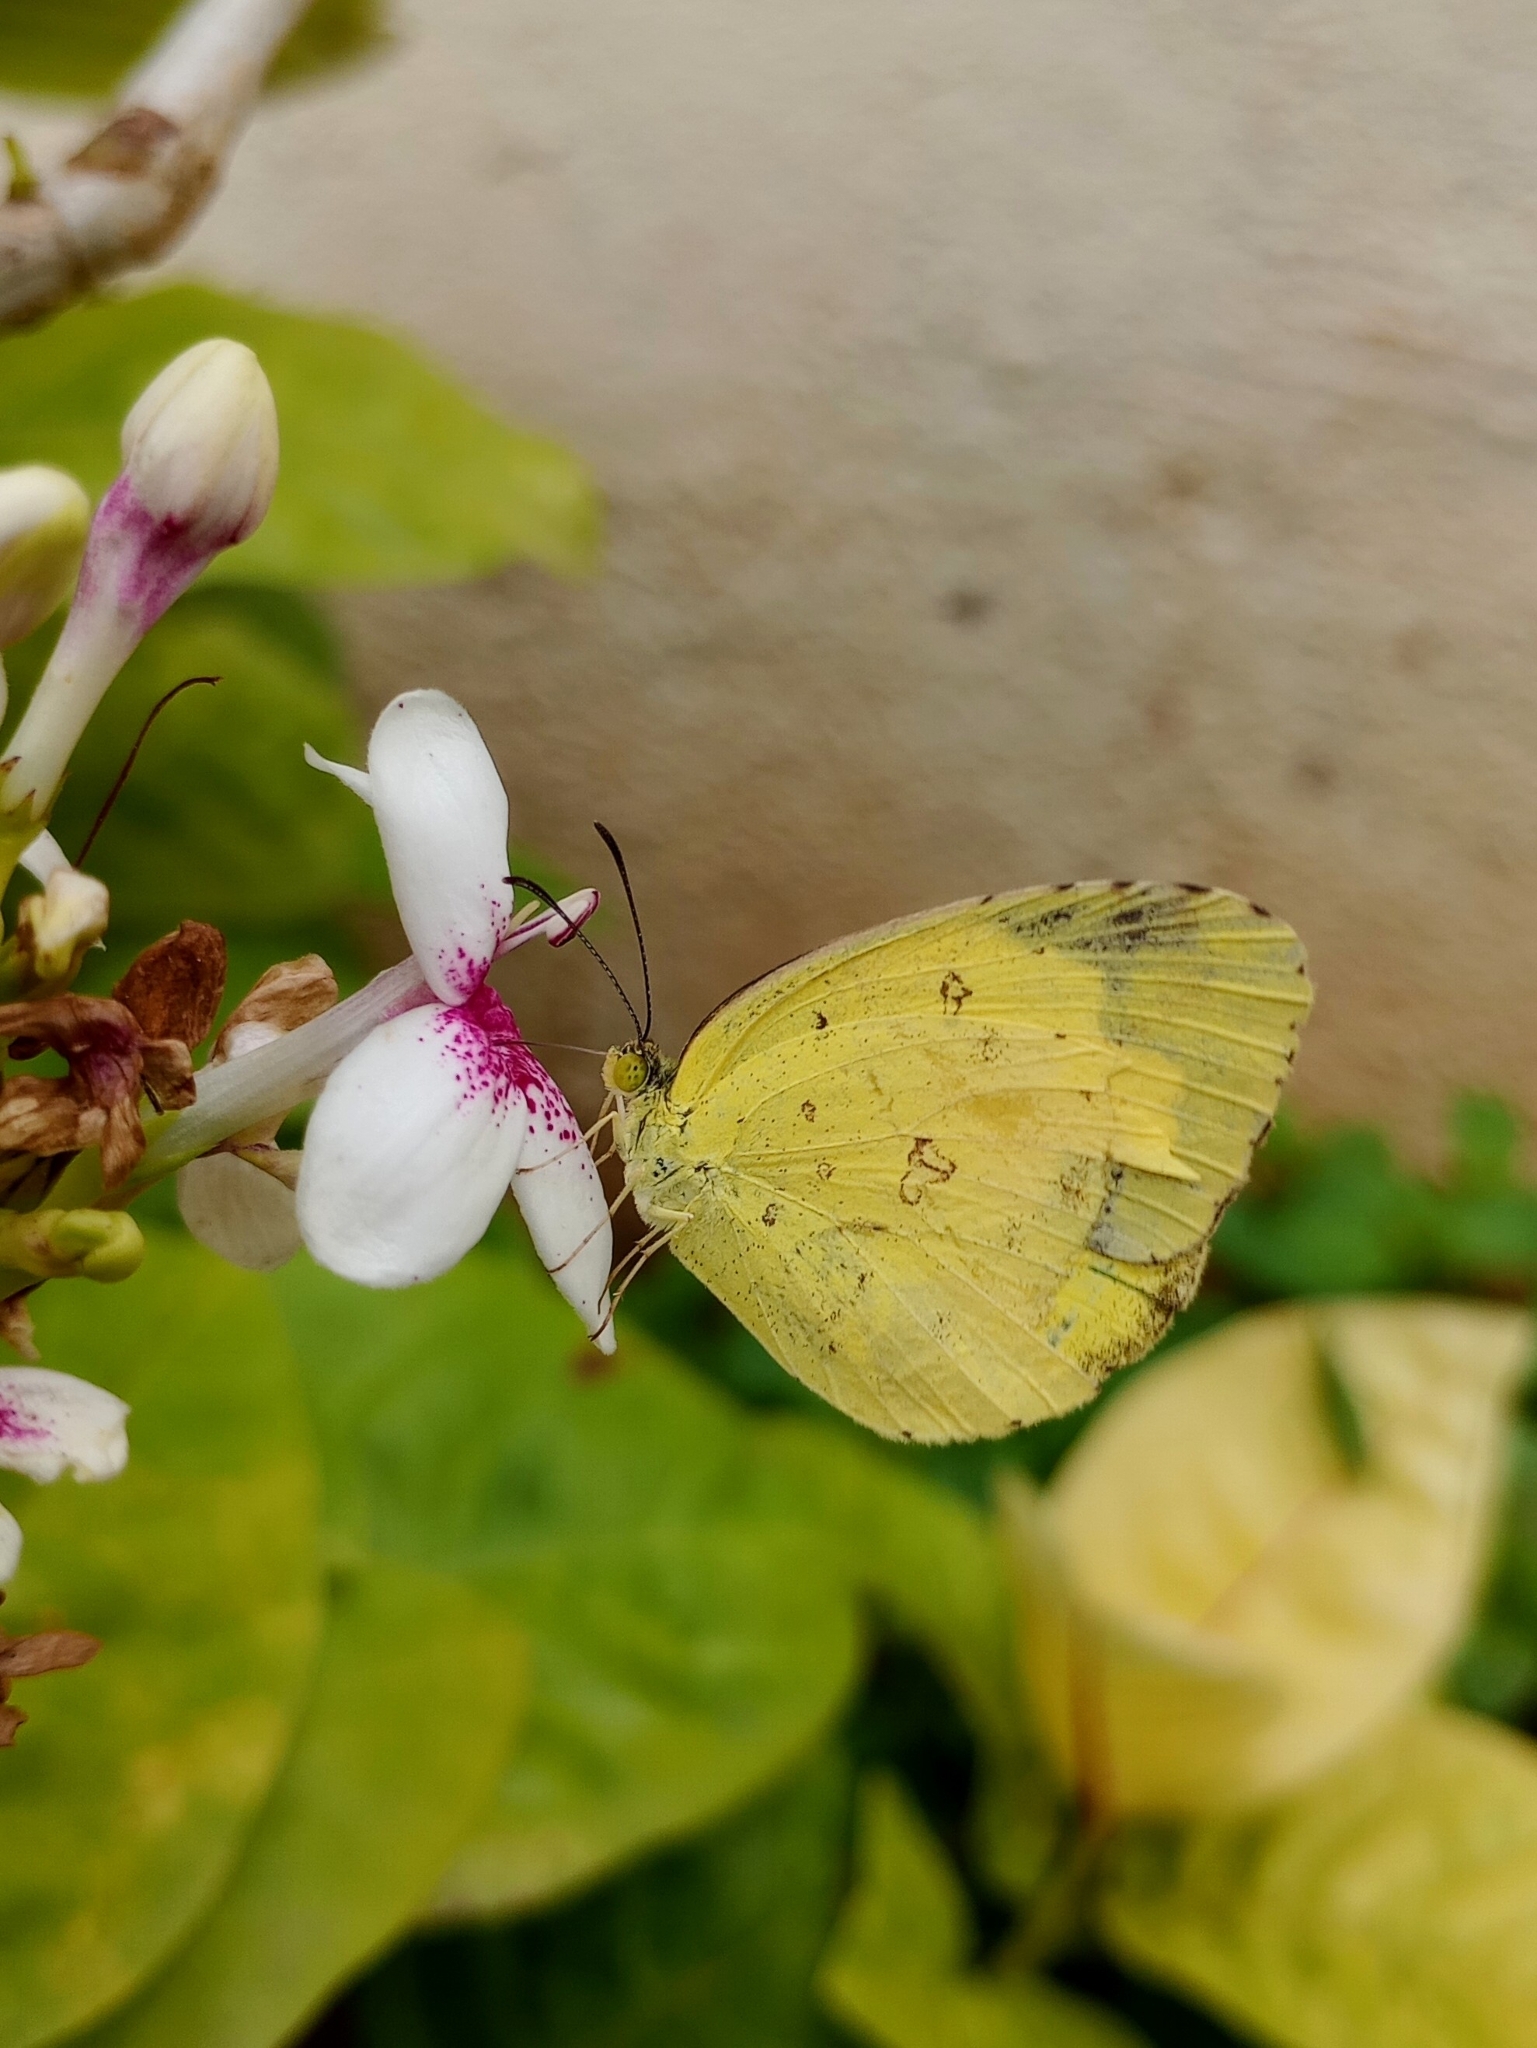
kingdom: Animalia
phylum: Arthropoda
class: Insecta
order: Lepidoptera
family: Pieridae
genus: Eurema
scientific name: Eurema hecabe
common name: Pale grass yellow
